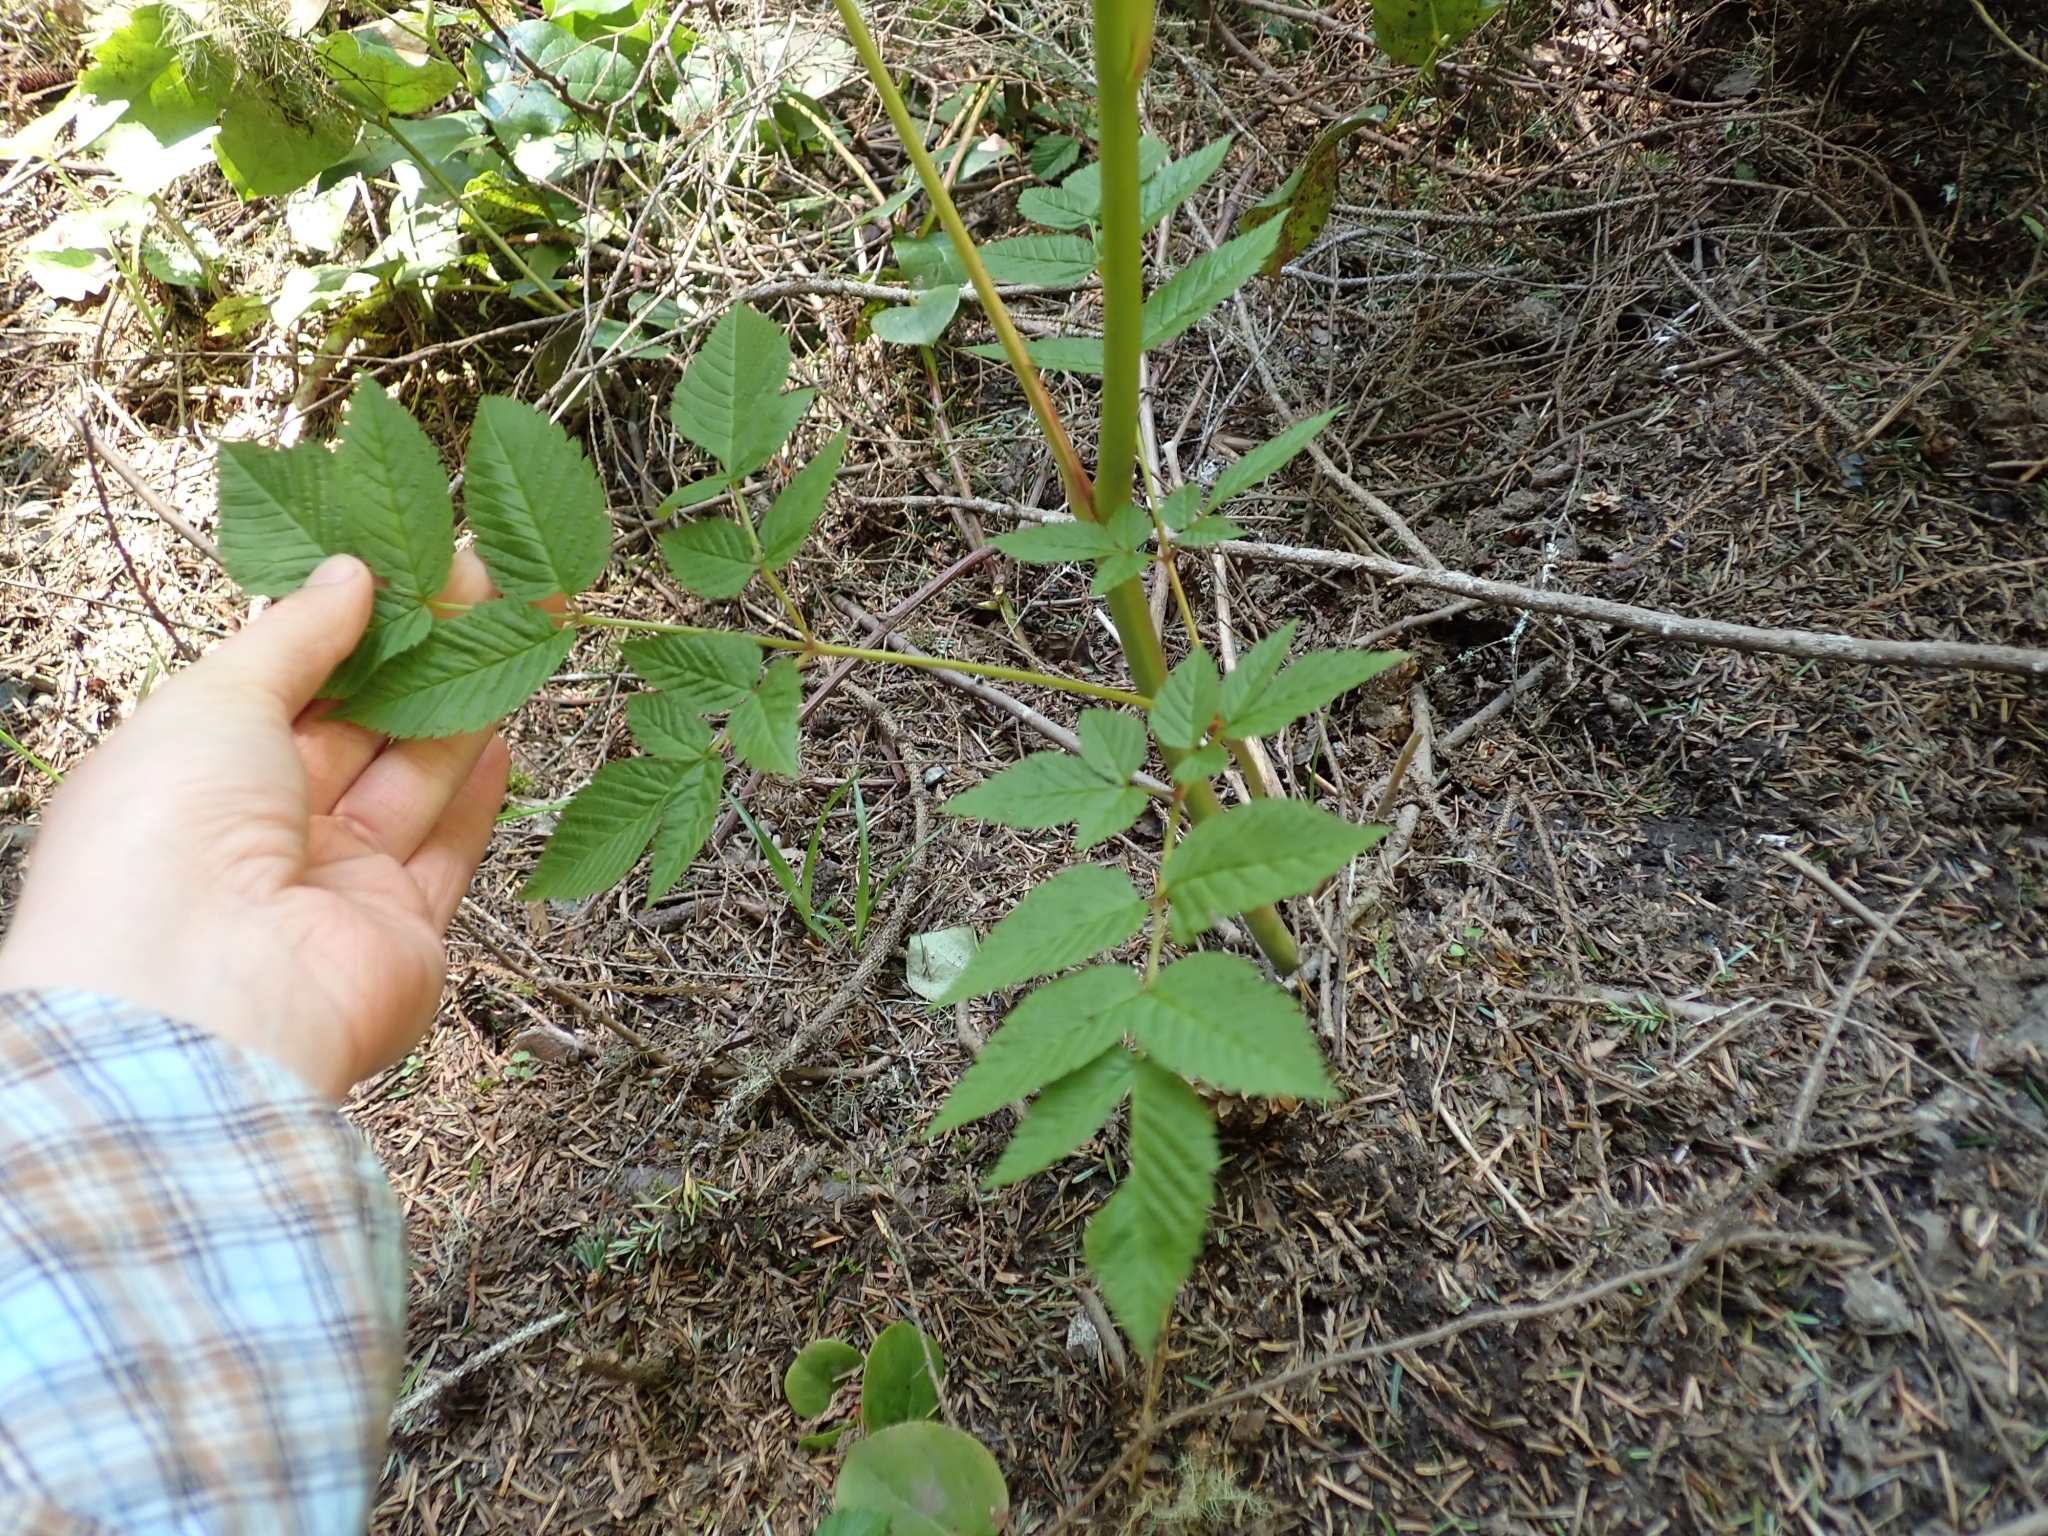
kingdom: Plantae
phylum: Tracheophyta
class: Magnoliopsida
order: Rosales
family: Rosaceae
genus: Aruncus
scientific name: Aruncus dioicus
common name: Buck's-beard
